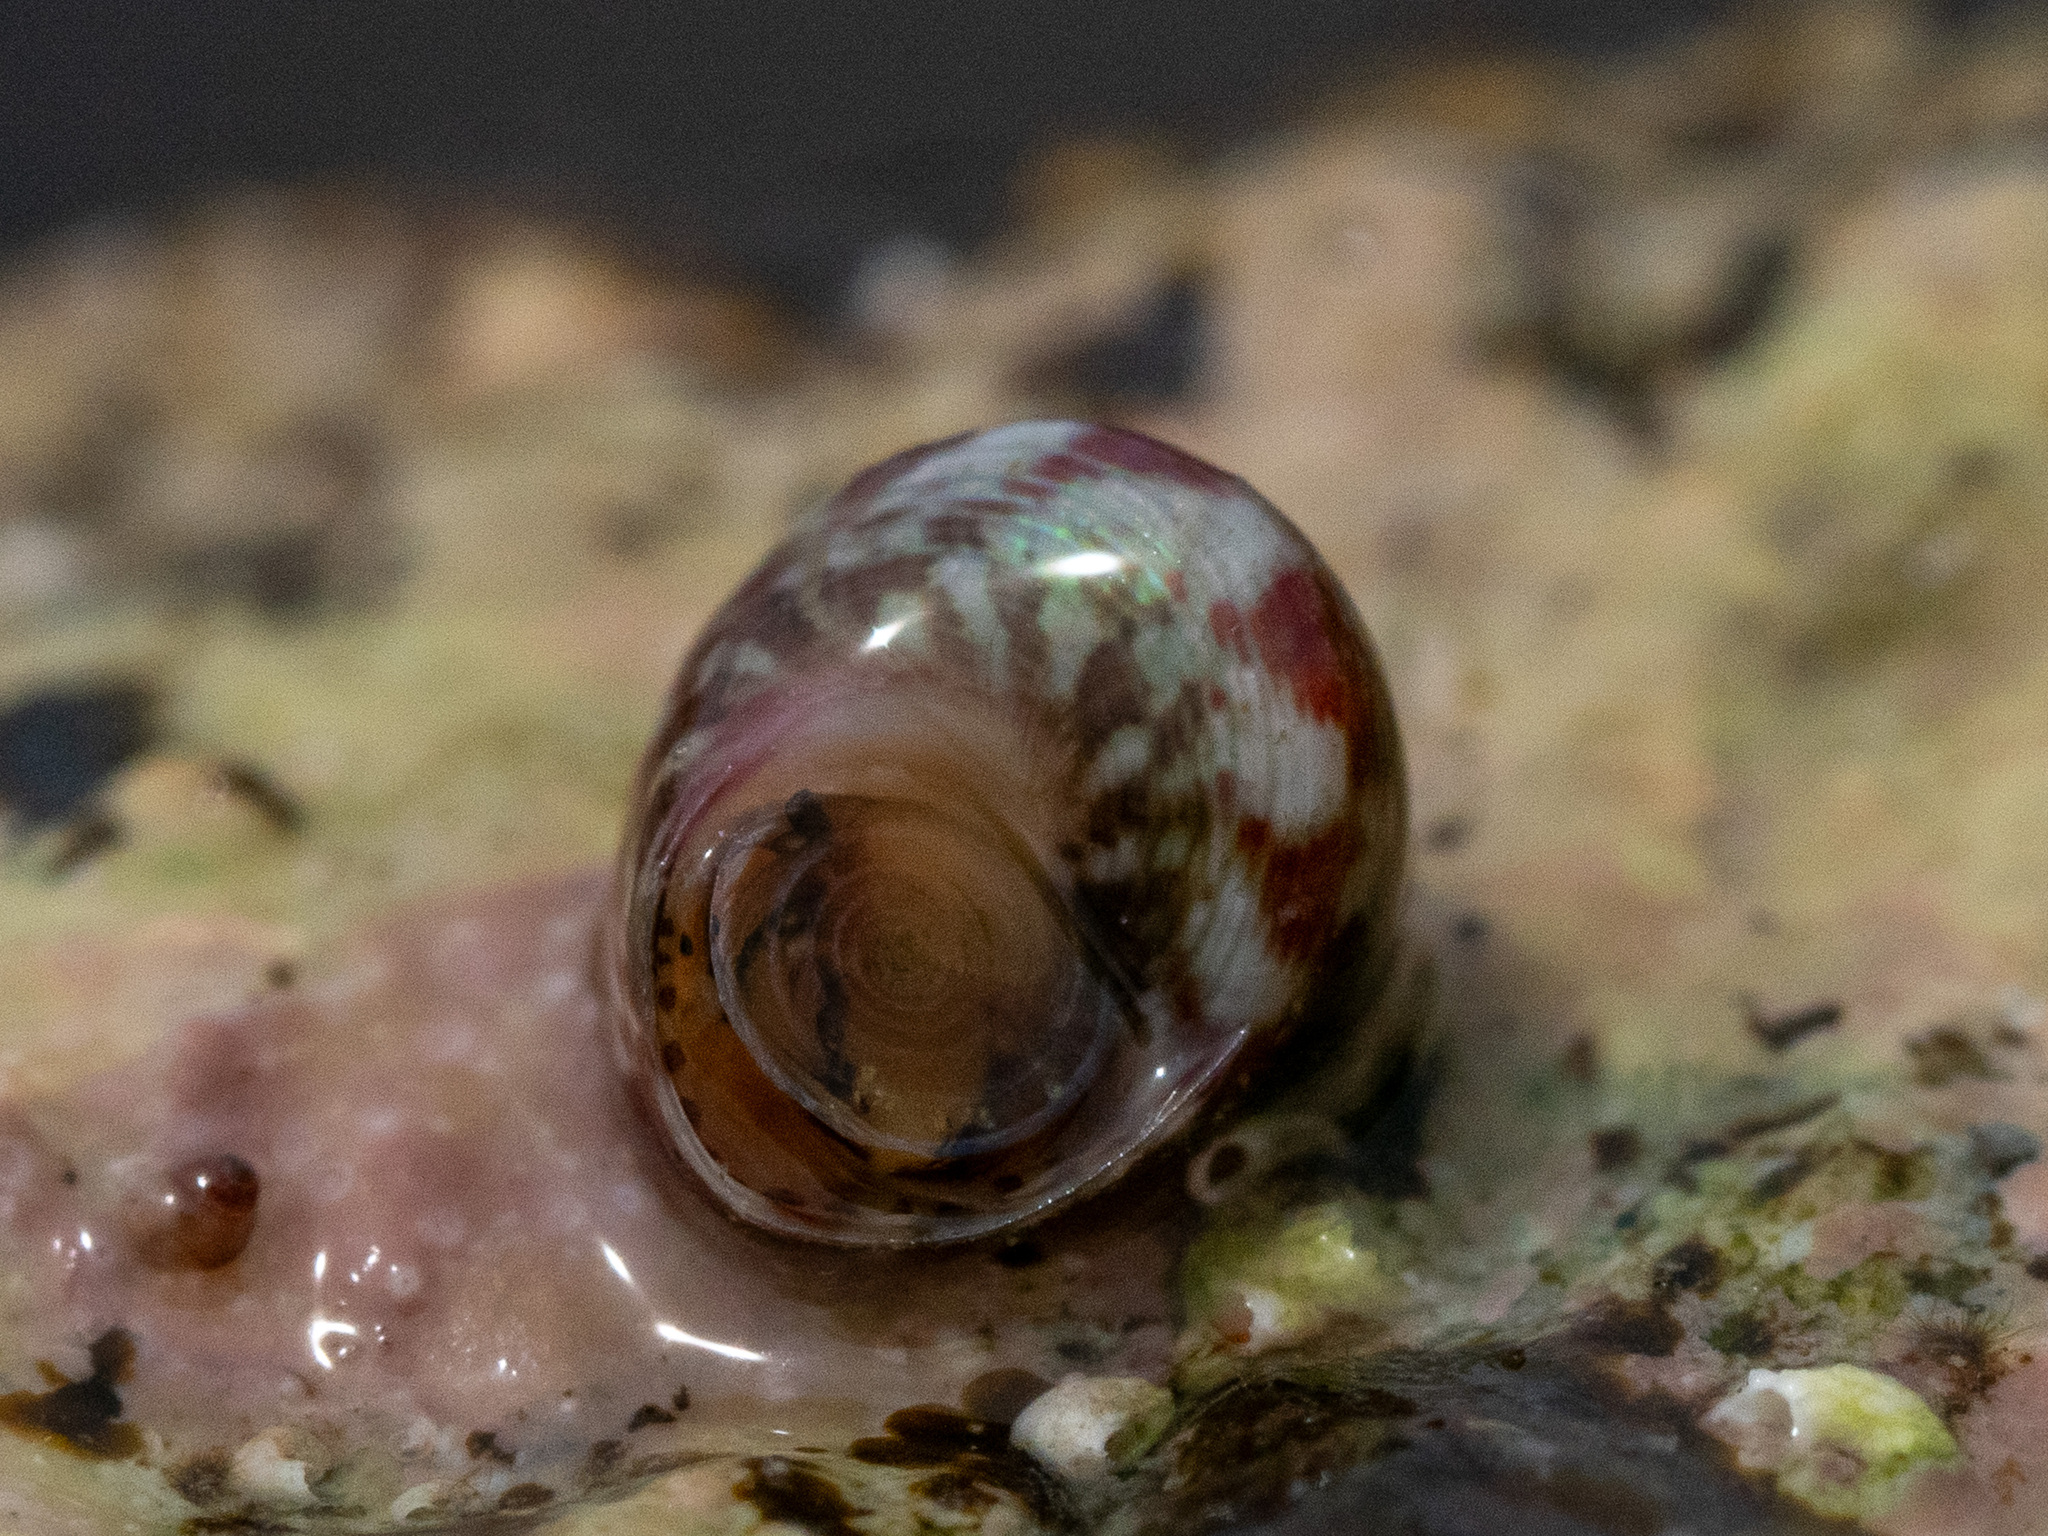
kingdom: Animalia
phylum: Mollusca
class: Gastropoda
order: Trochida
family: Trochidae
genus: Micrelenchus
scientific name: Micrelenchus tessellatus
